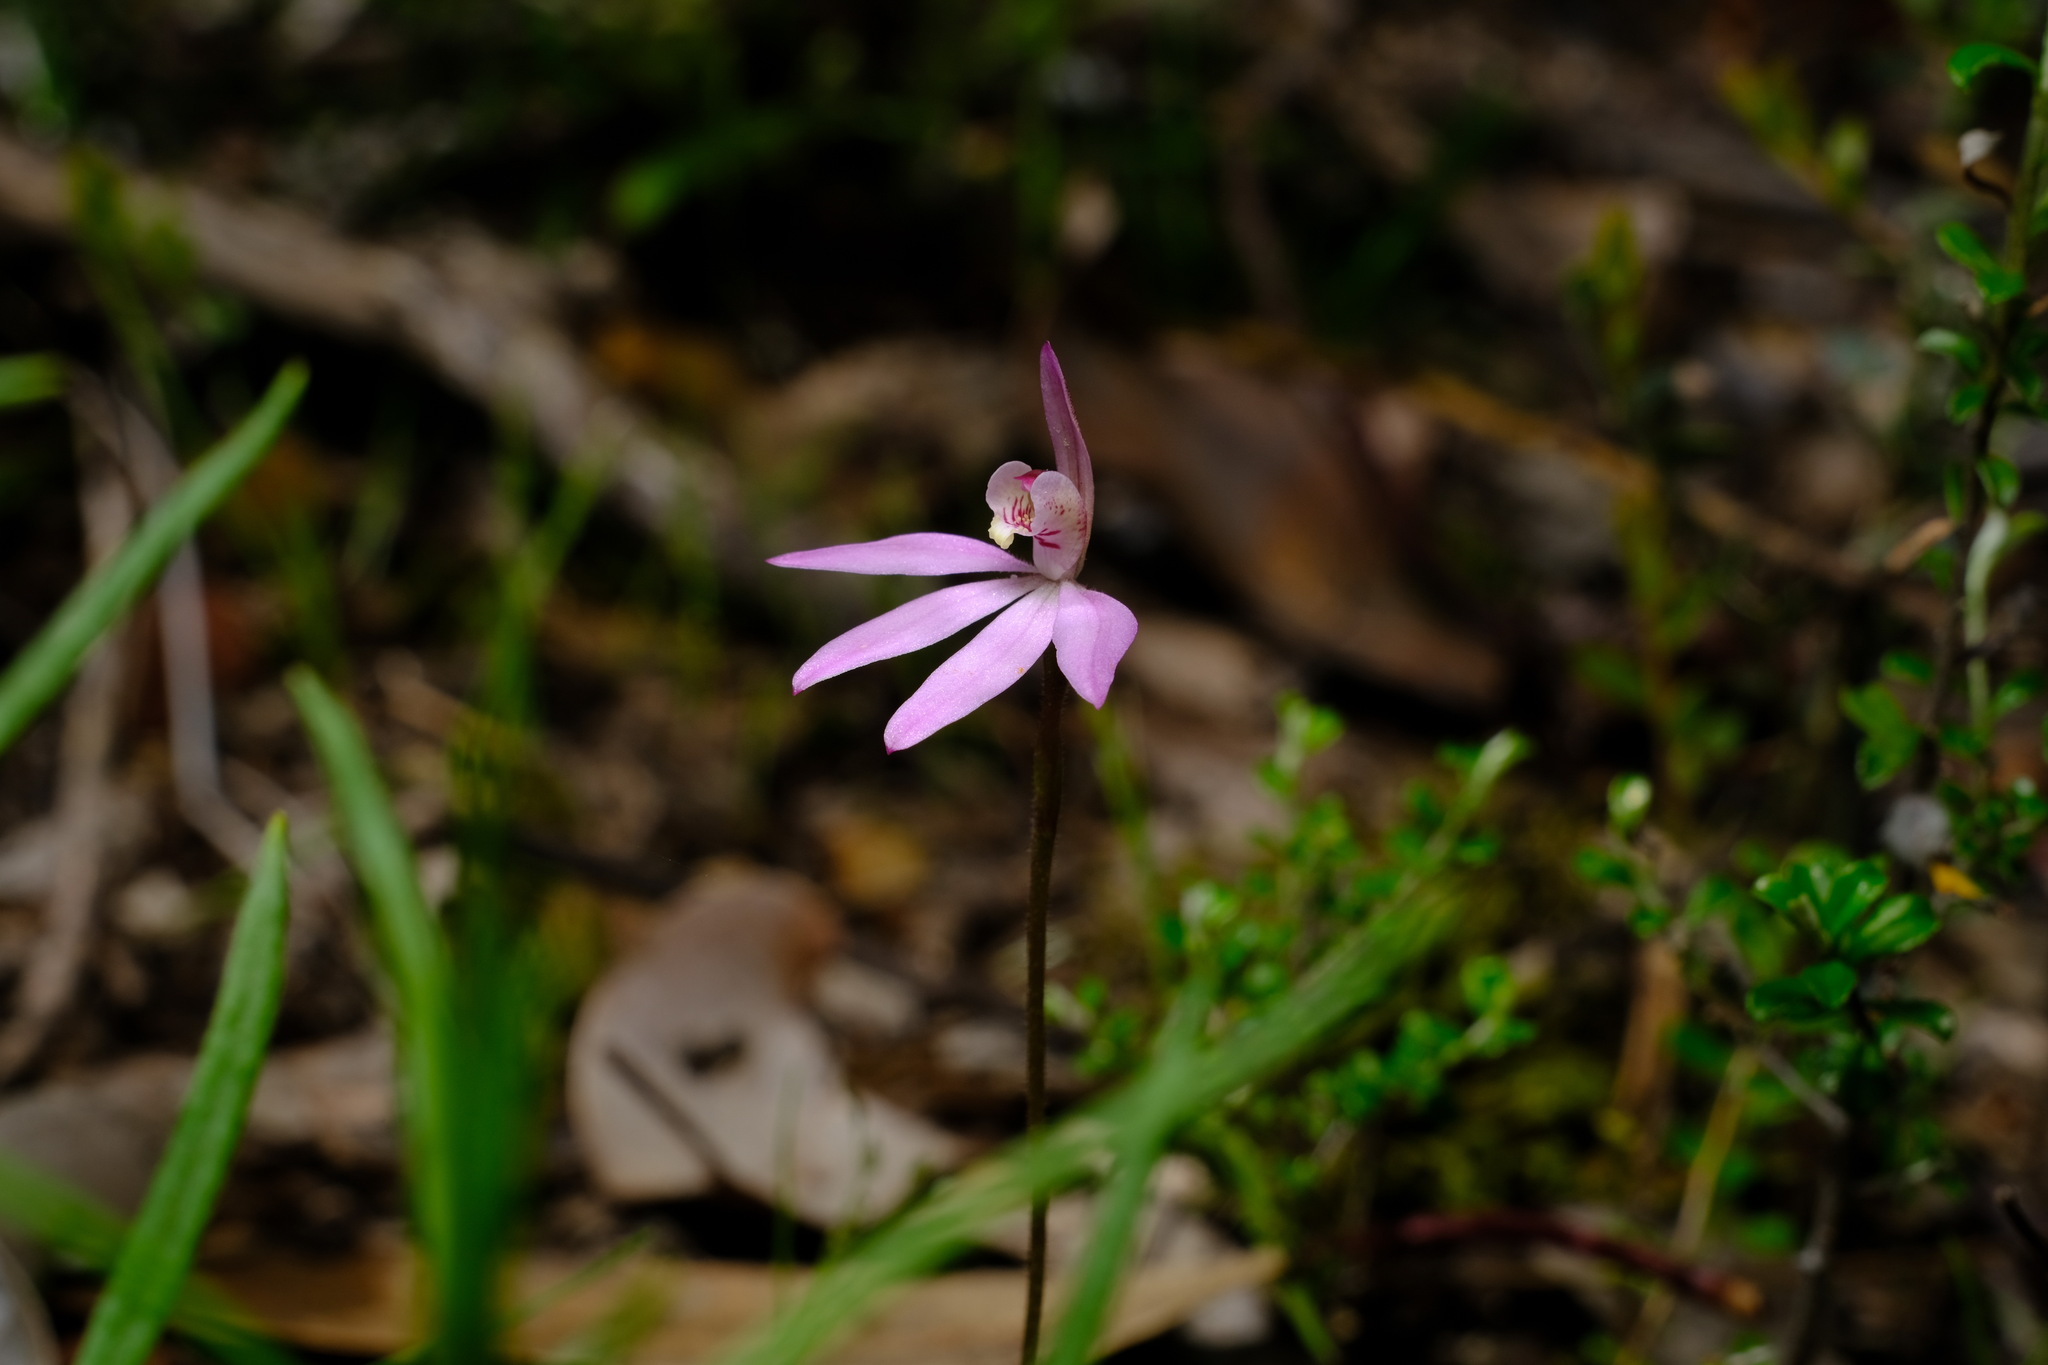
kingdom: Plantae
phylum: Tracheophyta
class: Liliopsida
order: Asparagales
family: Orchidaceae
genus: Caladenia
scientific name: Caladenia carnea
